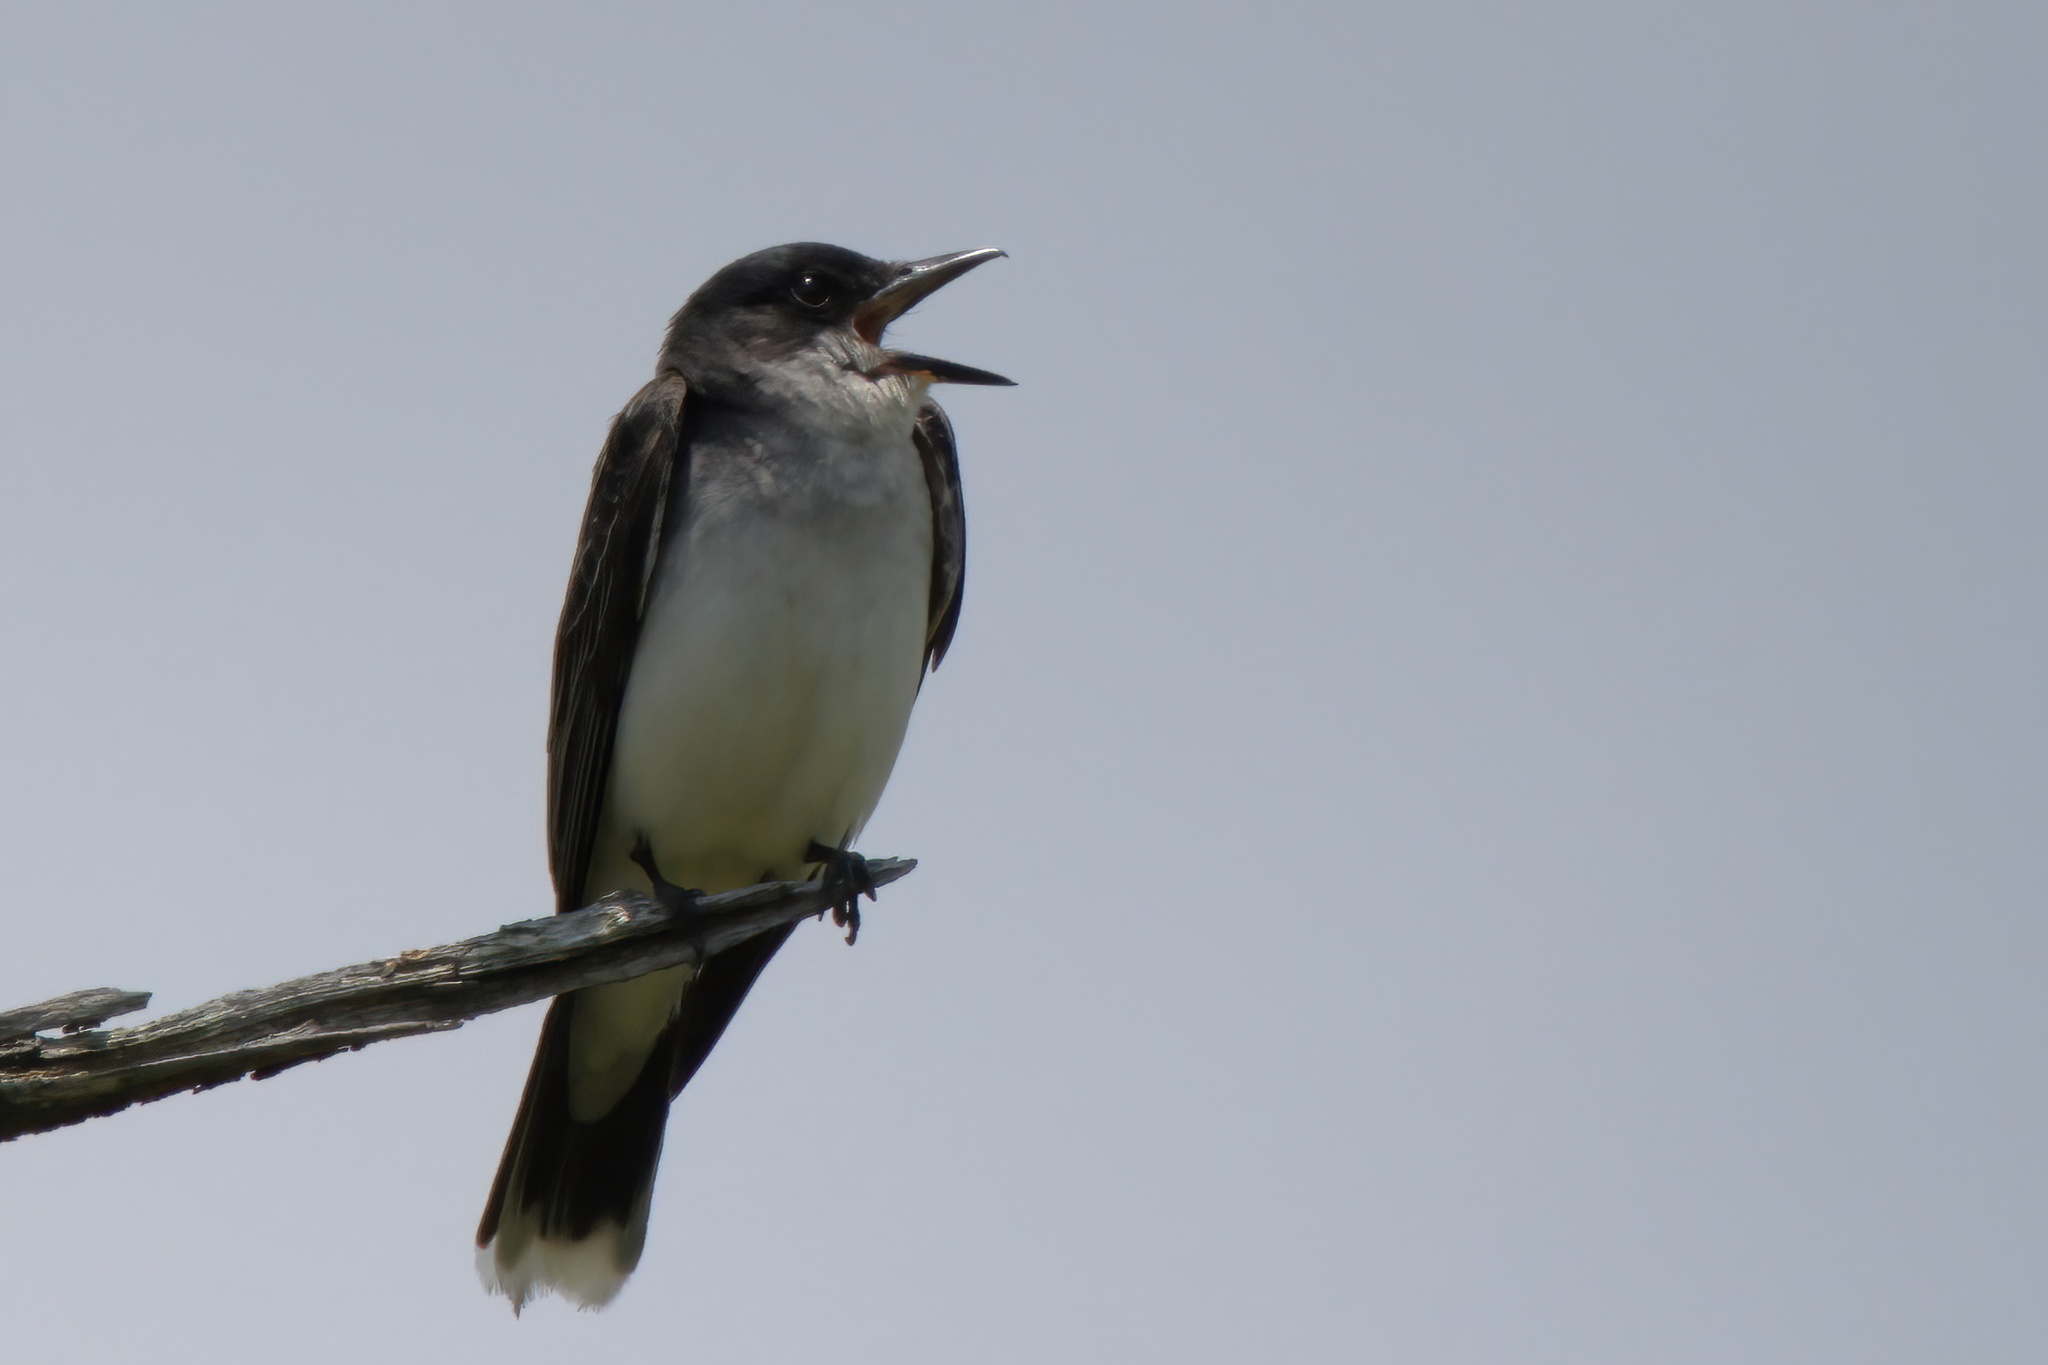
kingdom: Animalia
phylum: Chordata
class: Aves
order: Passeriformes
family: Tyrannidae
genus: Tyrannus
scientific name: Tyrannus tyrannus
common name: Eastern kingbird
